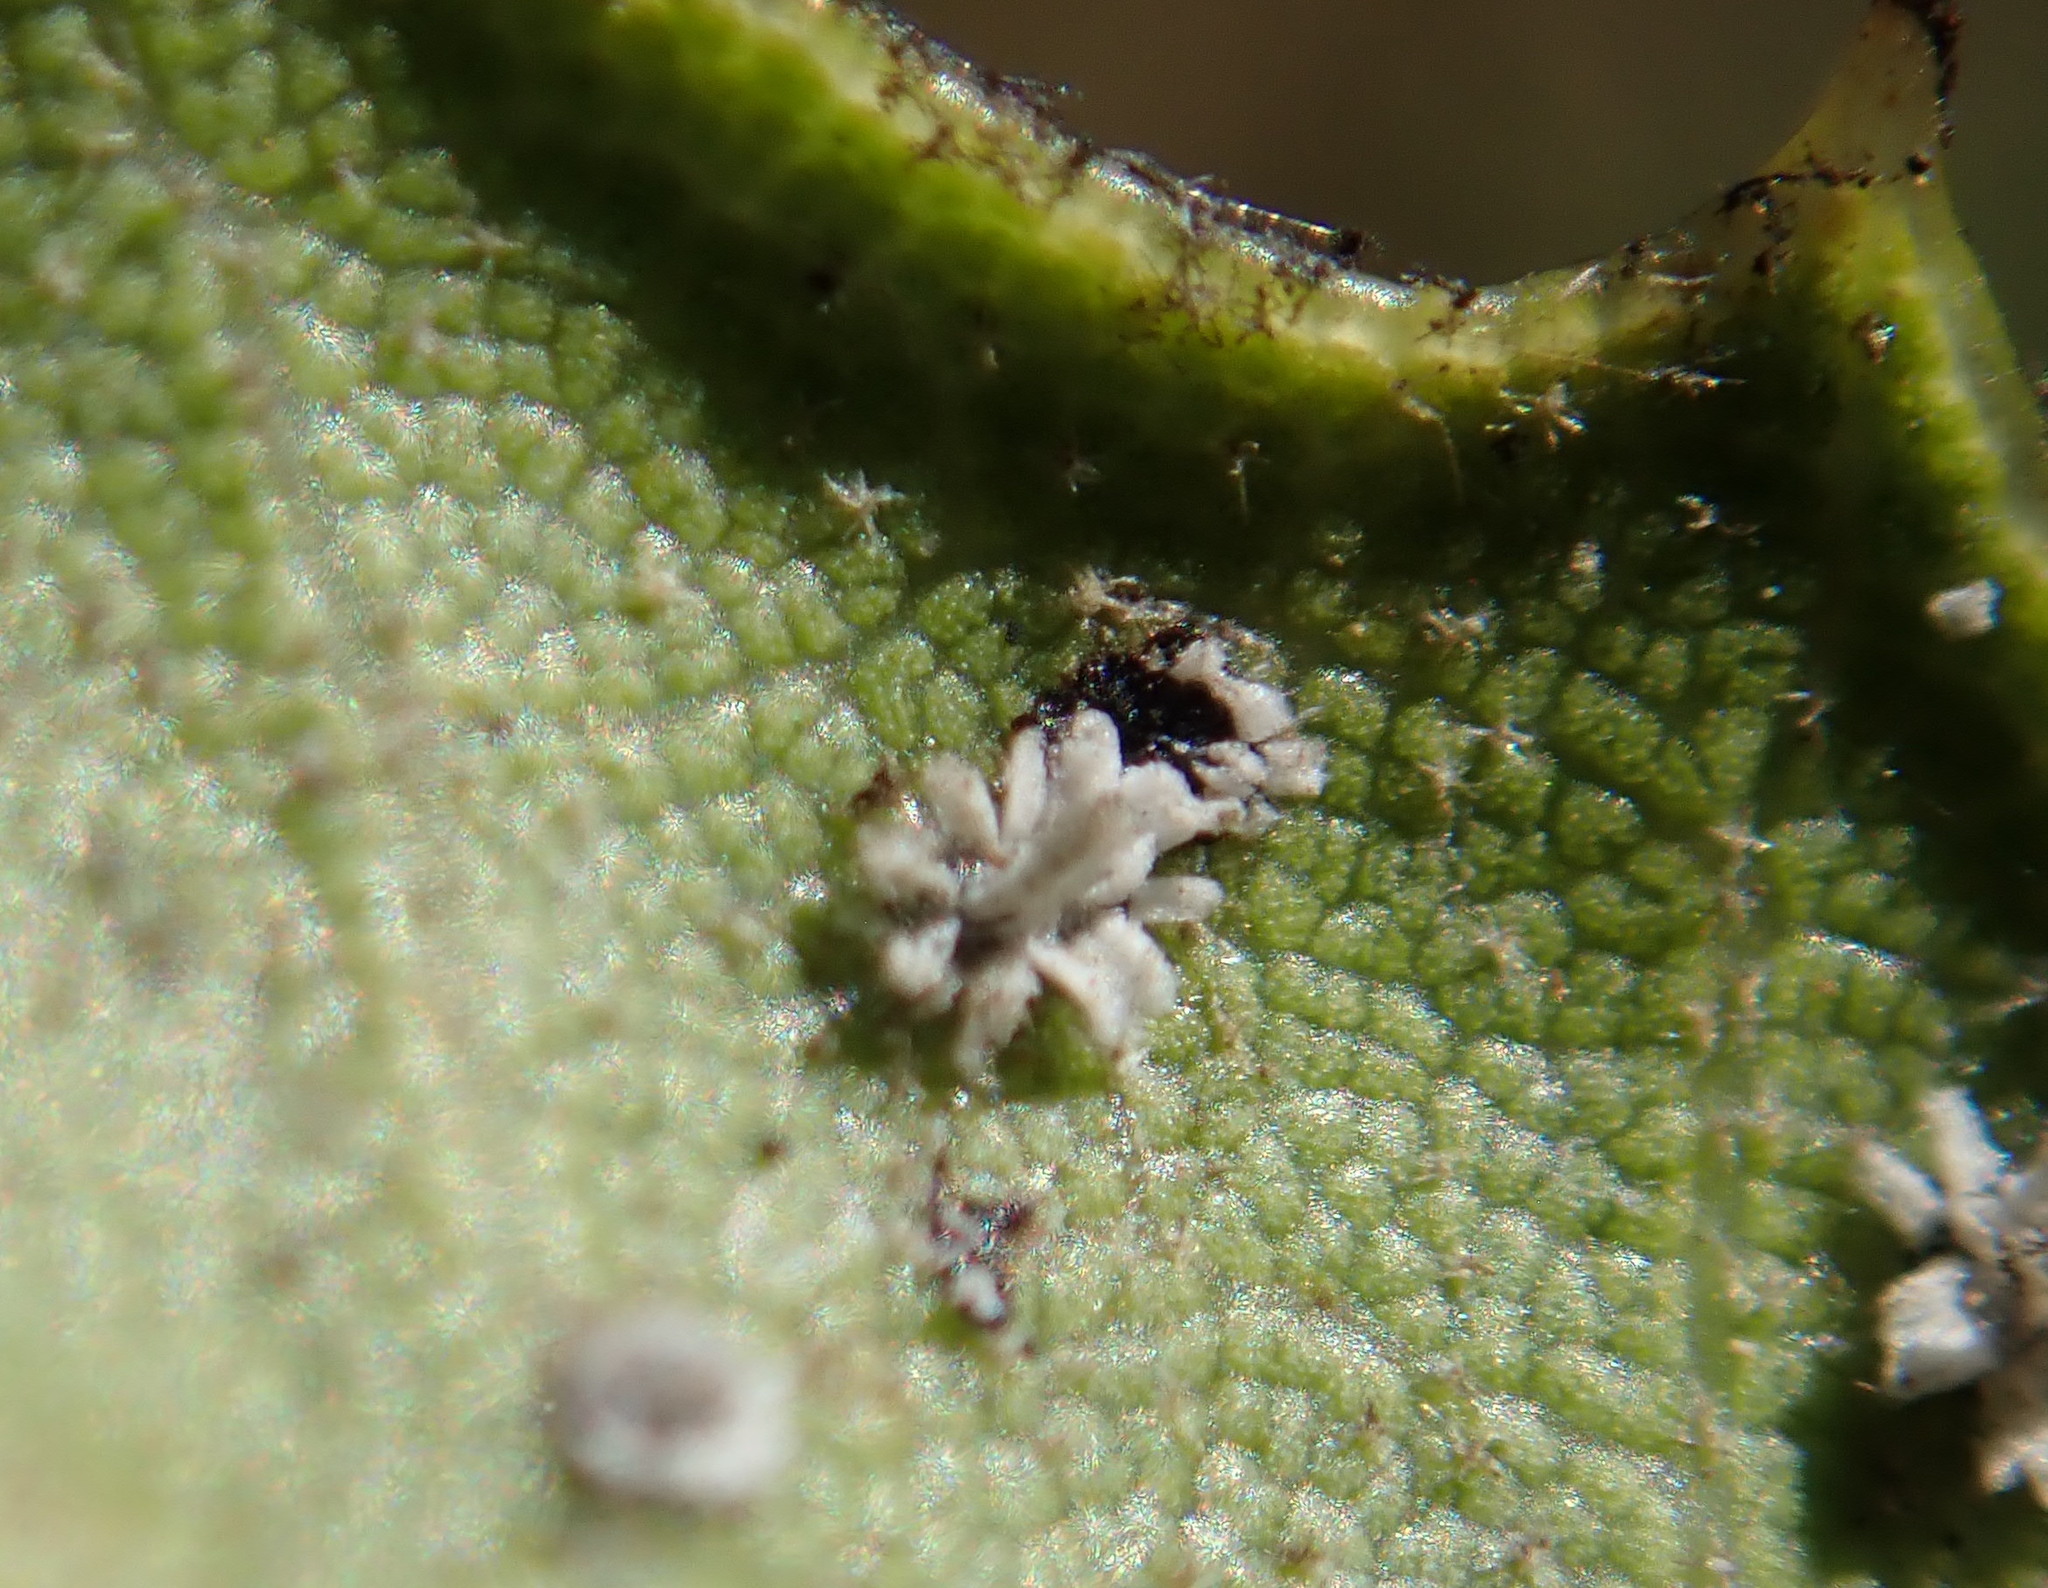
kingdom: Animalia
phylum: Arthropoda
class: Insecta
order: Hemiptera
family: Aleyrodidae
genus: Aleuroplatus
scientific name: Aleuroplatus coronata
